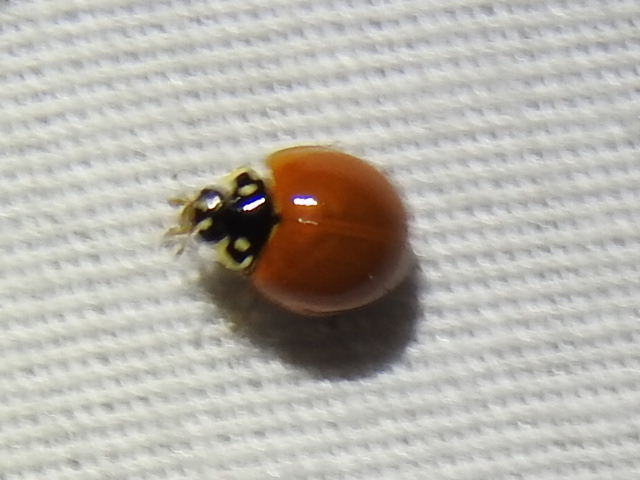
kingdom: Animalia
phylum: Arthropoda
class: Insecta
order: Coleoptera
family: Coccinellidae
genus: Cycloneda
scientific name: Cycloneda sanguinea
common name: Ladybird beetle
